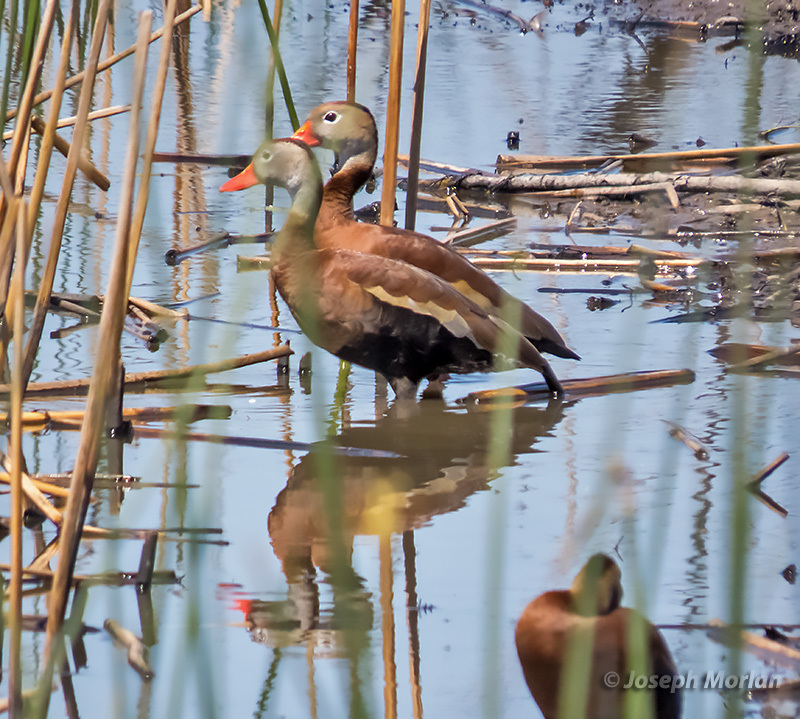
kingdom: Animalia
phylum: Chordata
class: Aves
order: Anseriformes
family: Anatidae
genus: Dendrocygna
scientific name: Dendrocygna autumnalis
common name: Black-bellied whistling duck
